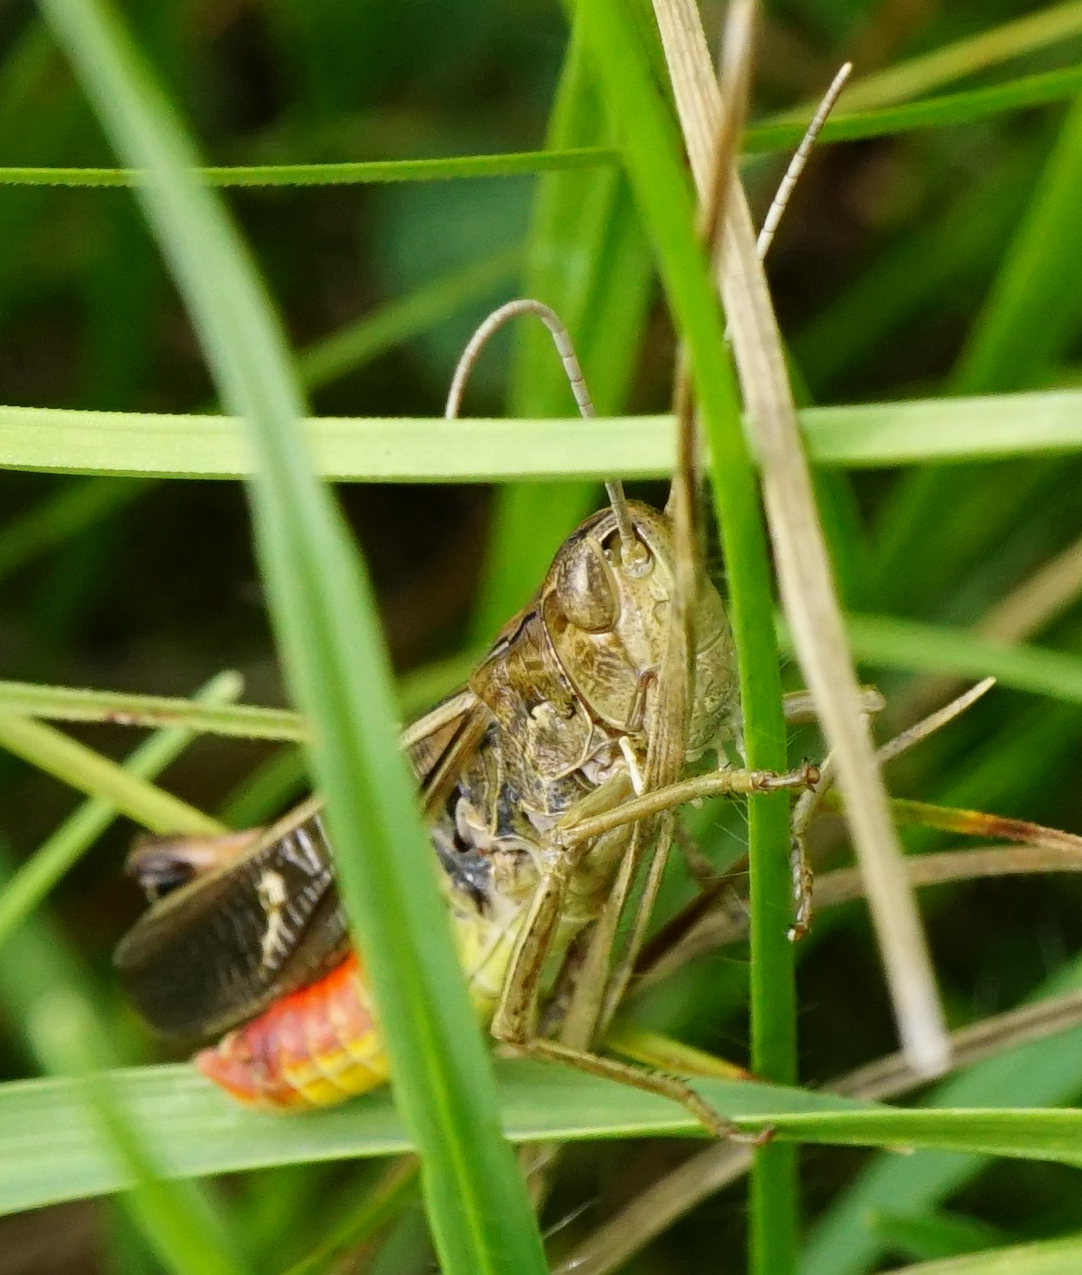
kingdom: Animalia
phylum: Arthropoda
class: Insecta
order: Orthoptera
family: Acrididae
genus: Stenobothrus
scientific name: Stenobothrus lineatus
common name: Stripe-winged grasshopper
